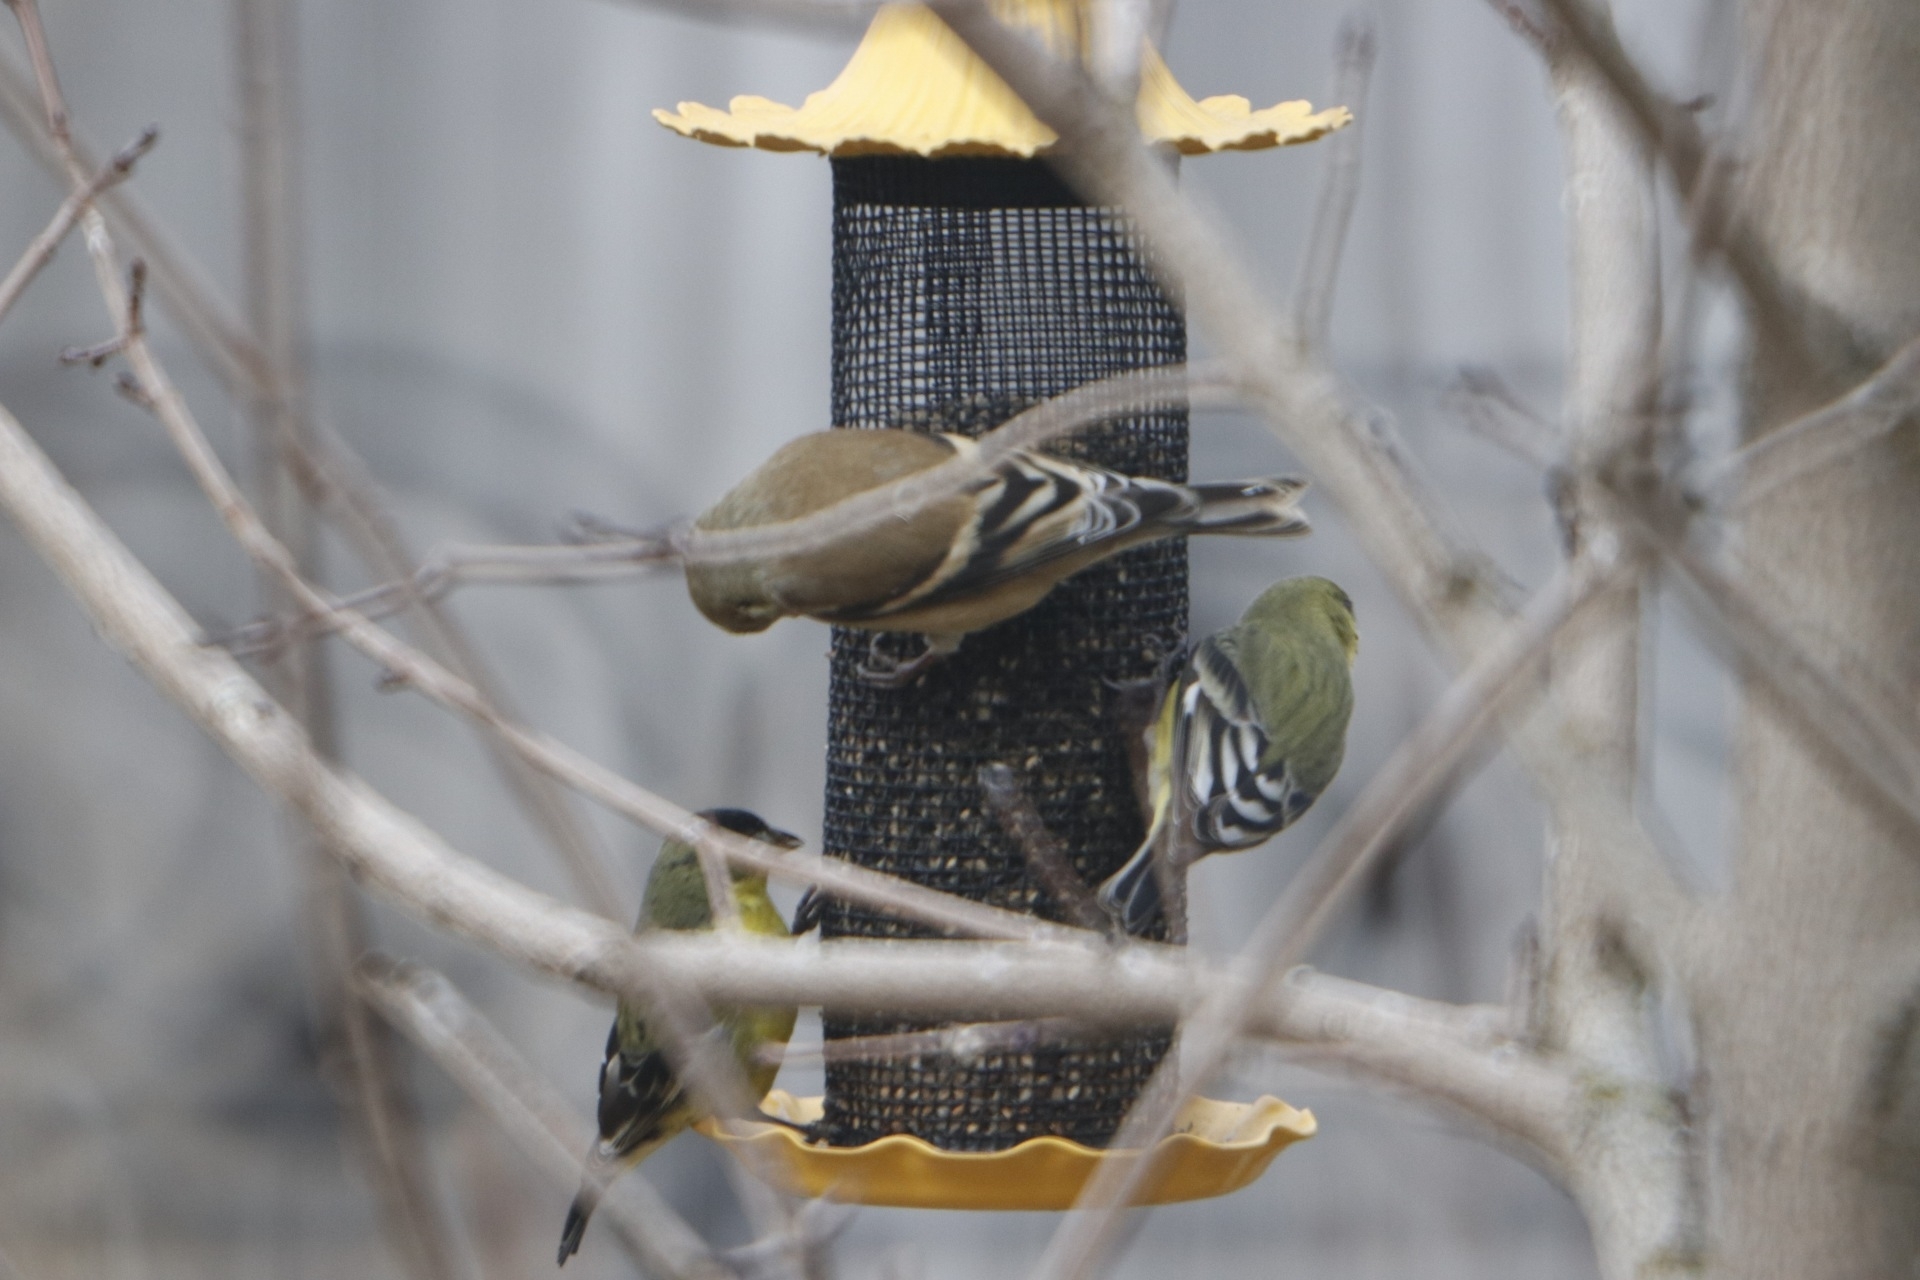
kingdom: Animalia
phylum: Chordata
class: Aves
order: Passeriformes
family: Fringillidae
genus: Spinus
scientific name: Spinus psaltria
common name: Lesser goldfinch
